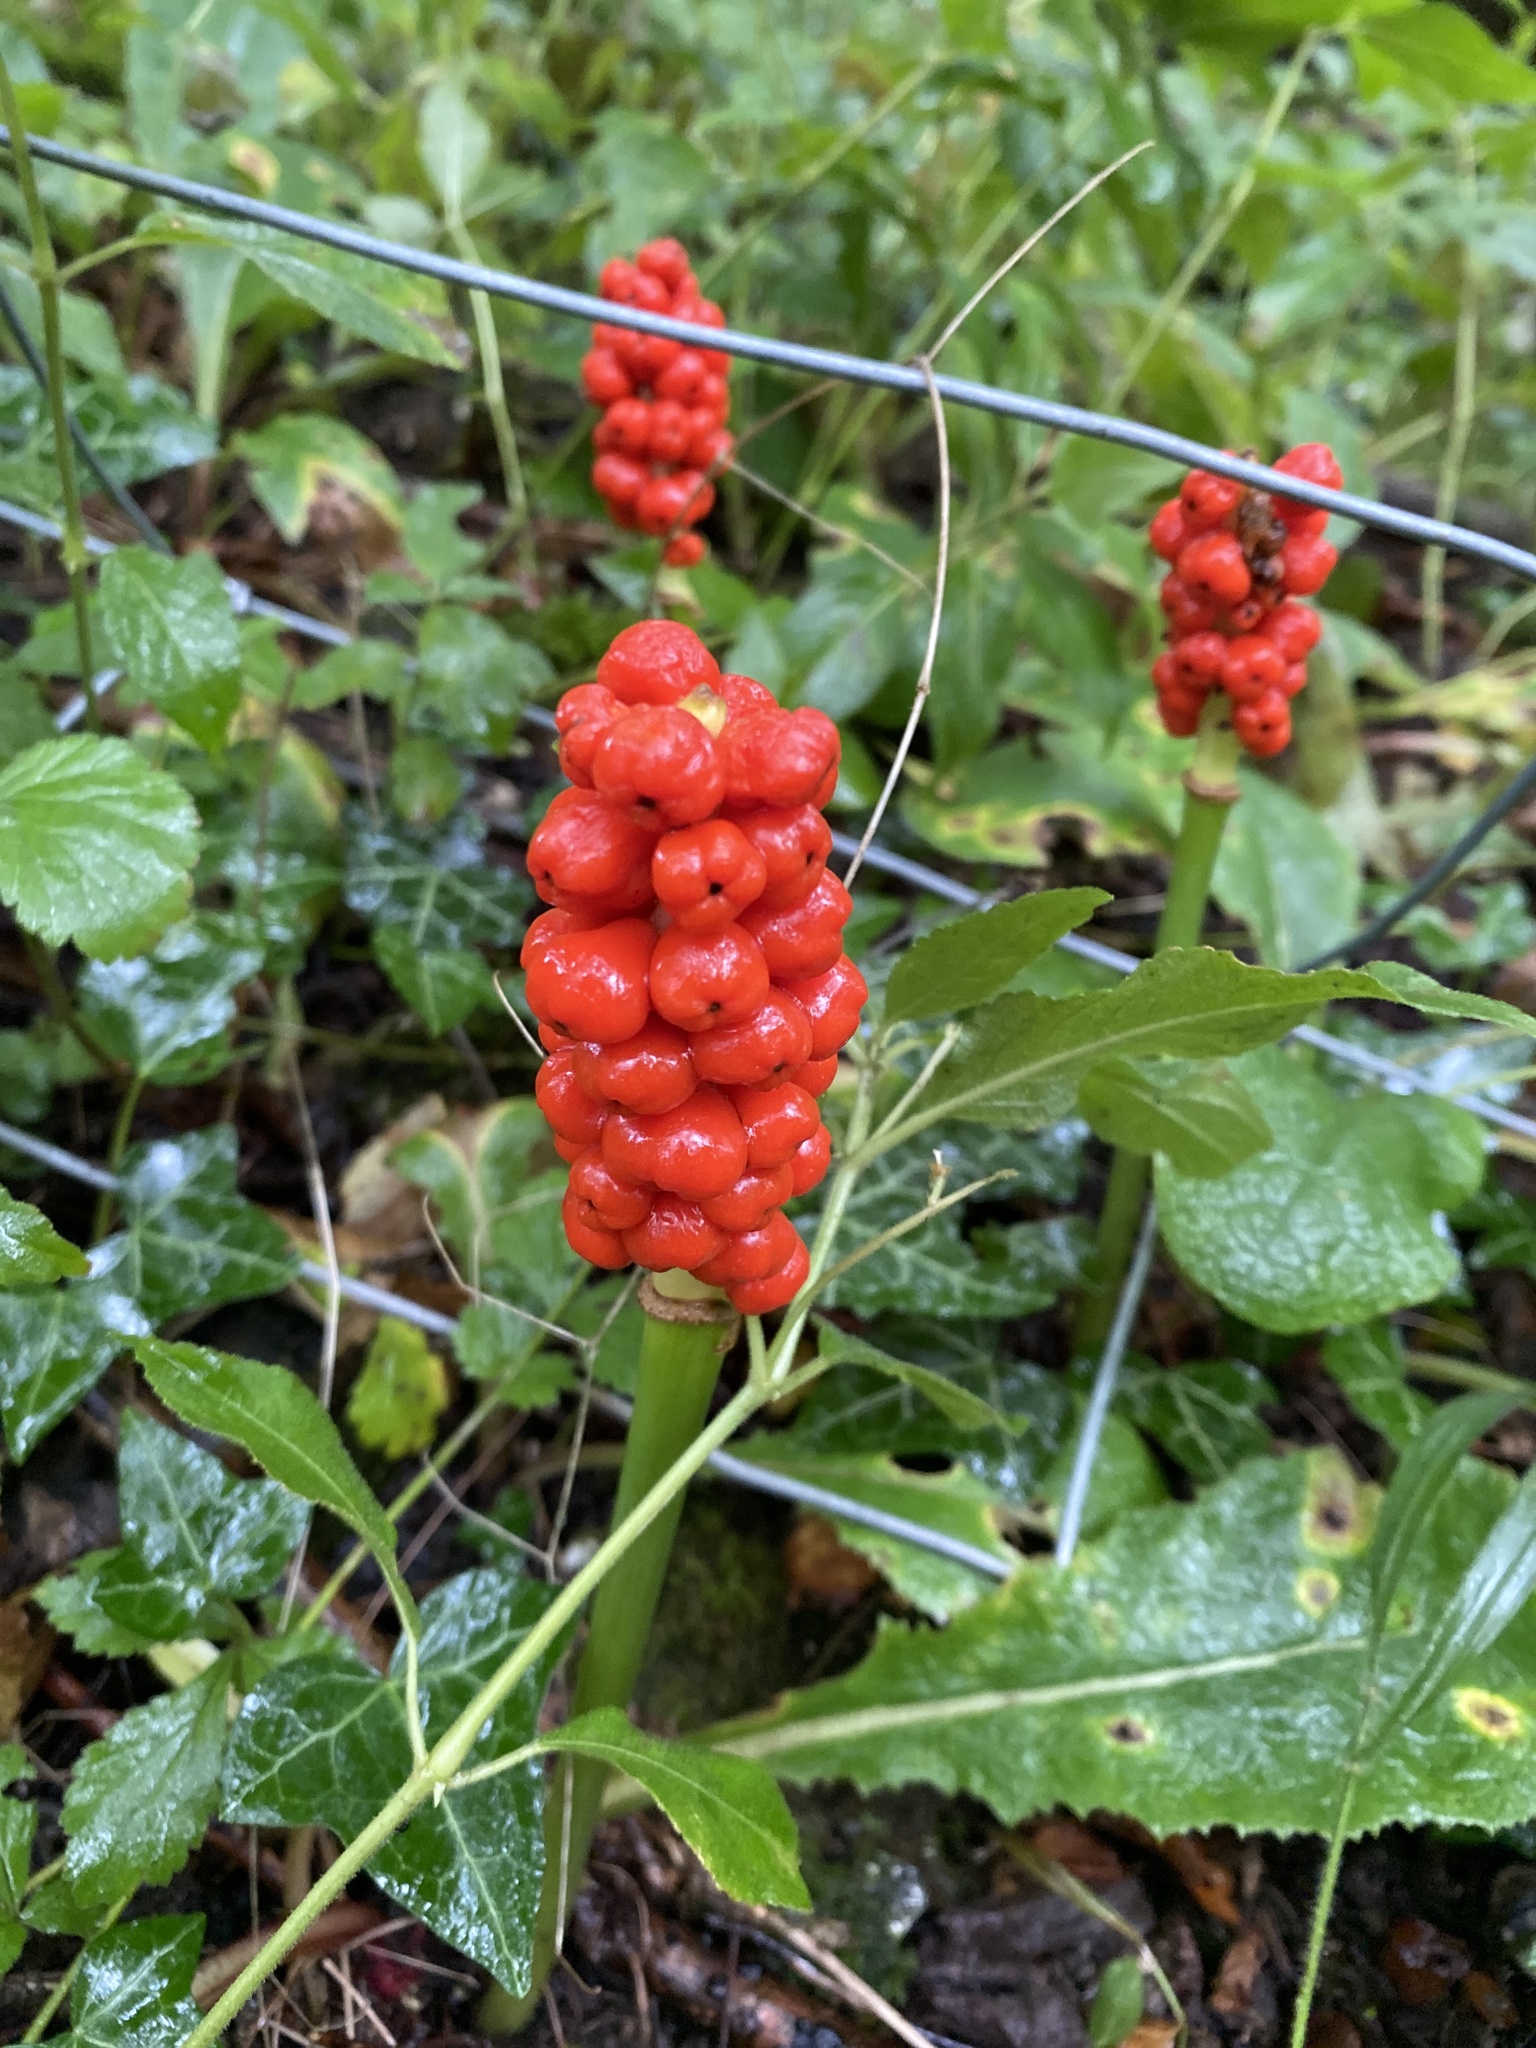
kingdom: Plantae
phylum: Tracheophyta
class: Liliopsida
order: Alismatales
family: Araceae
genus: Arum
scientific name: Arum maculatum
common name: Lords-and-ladies
